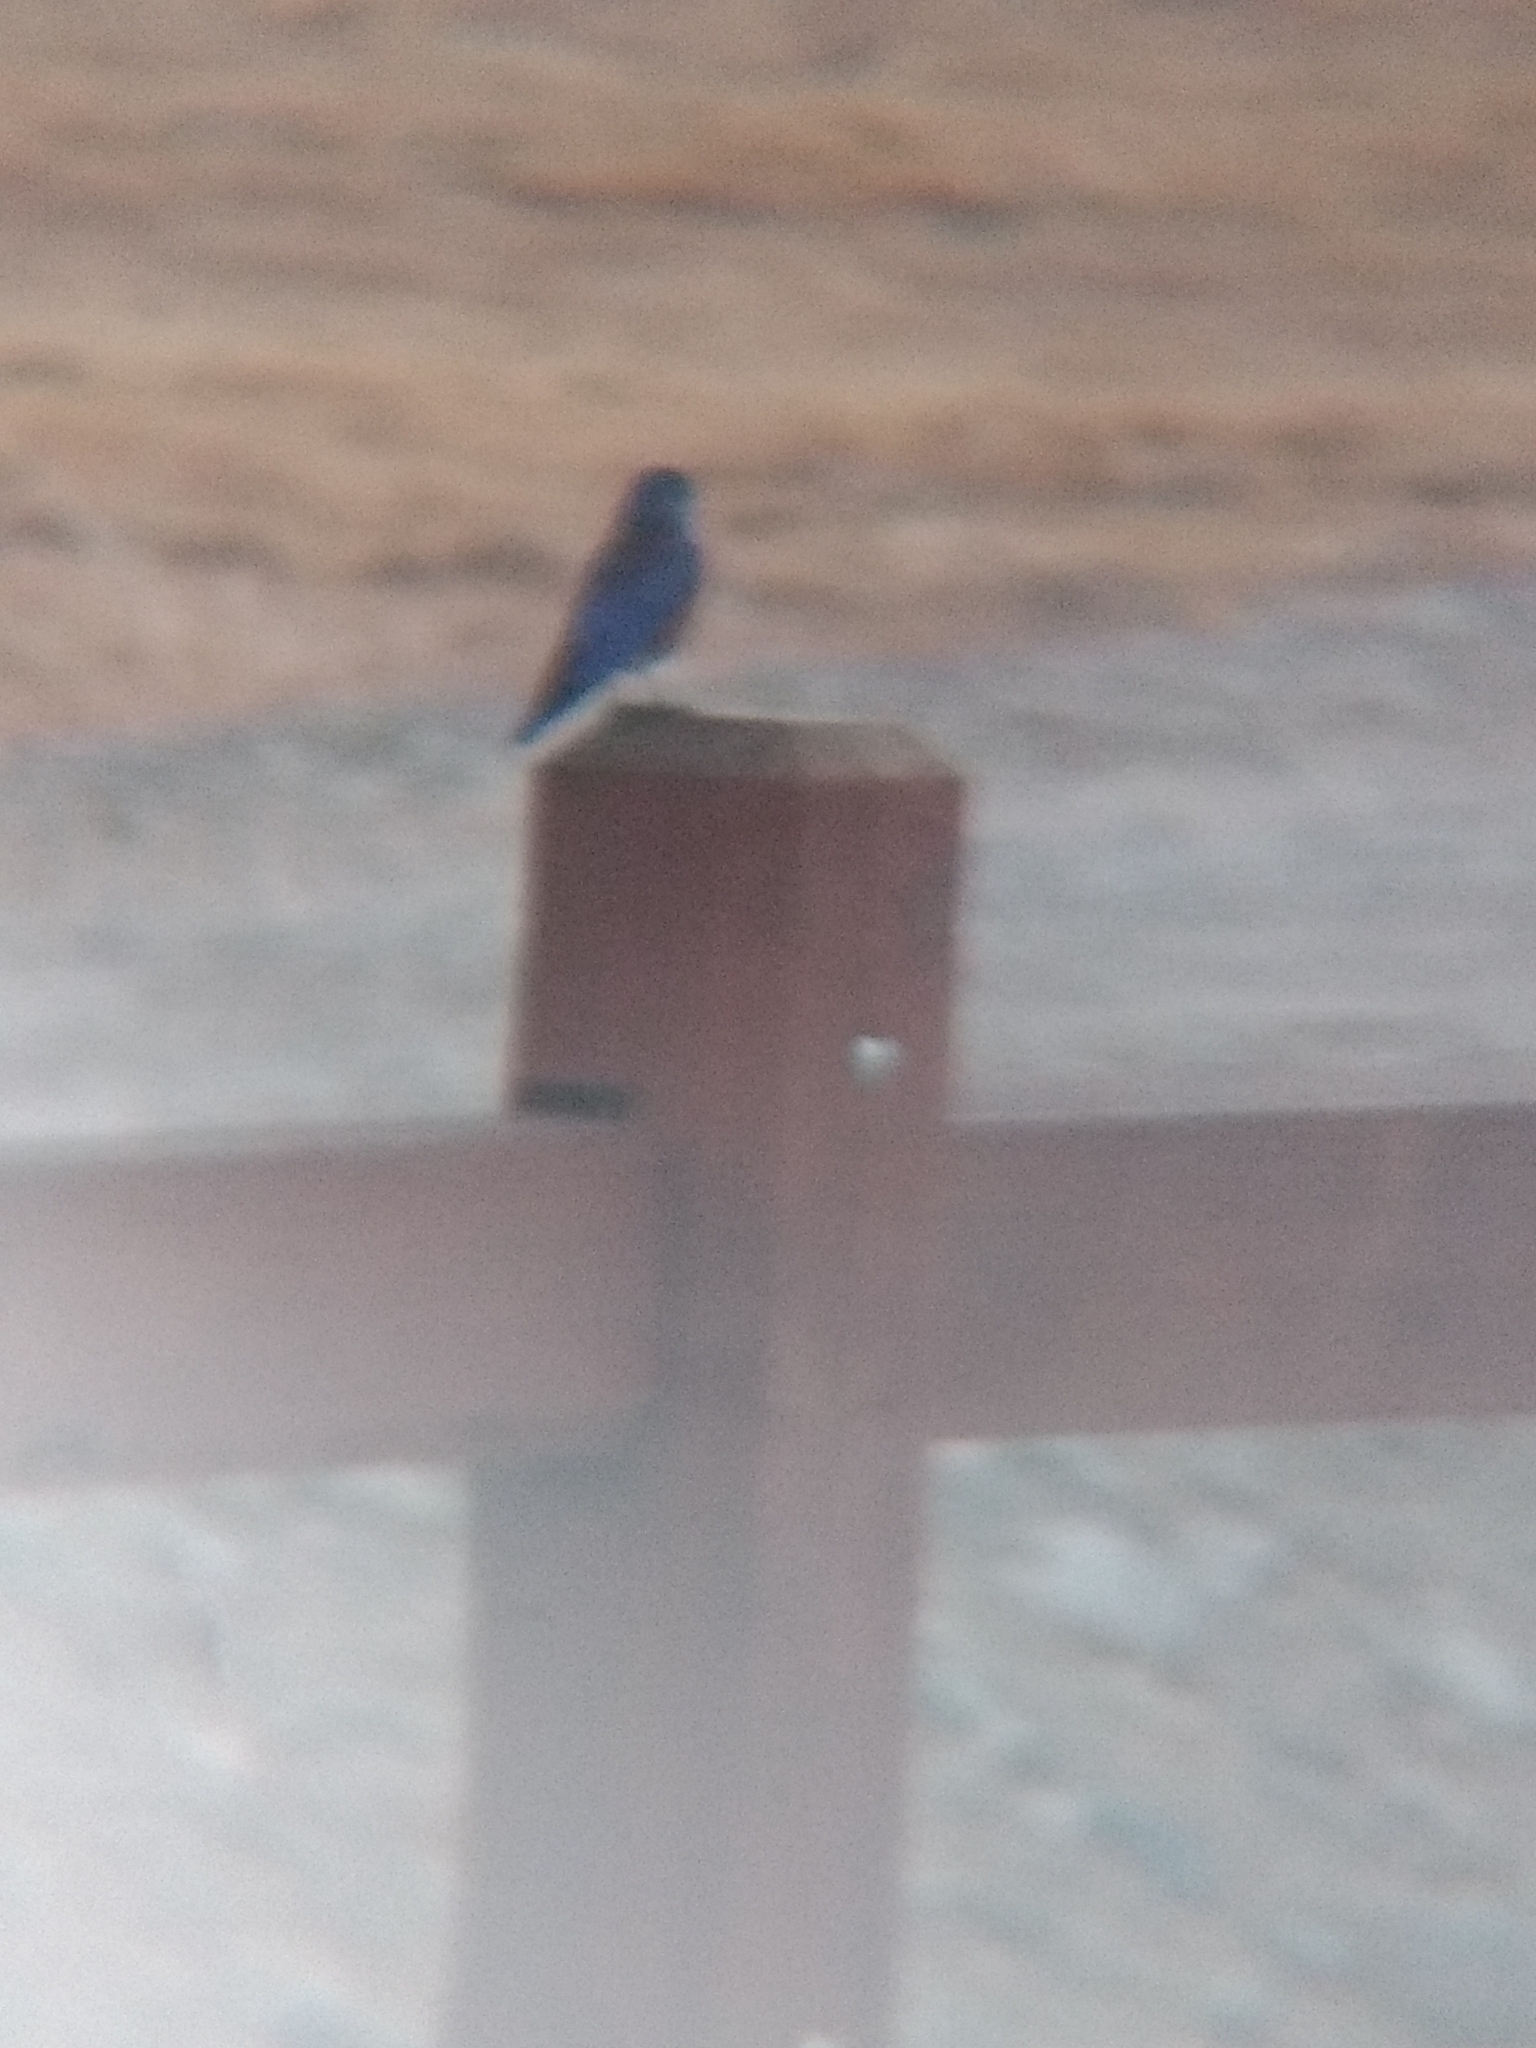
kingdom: Animalia
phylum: Chordata
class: Aves
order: Passeriformes
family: Turdidae
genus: Sialia
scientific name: Sialia mexicana
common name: Western bluebird
